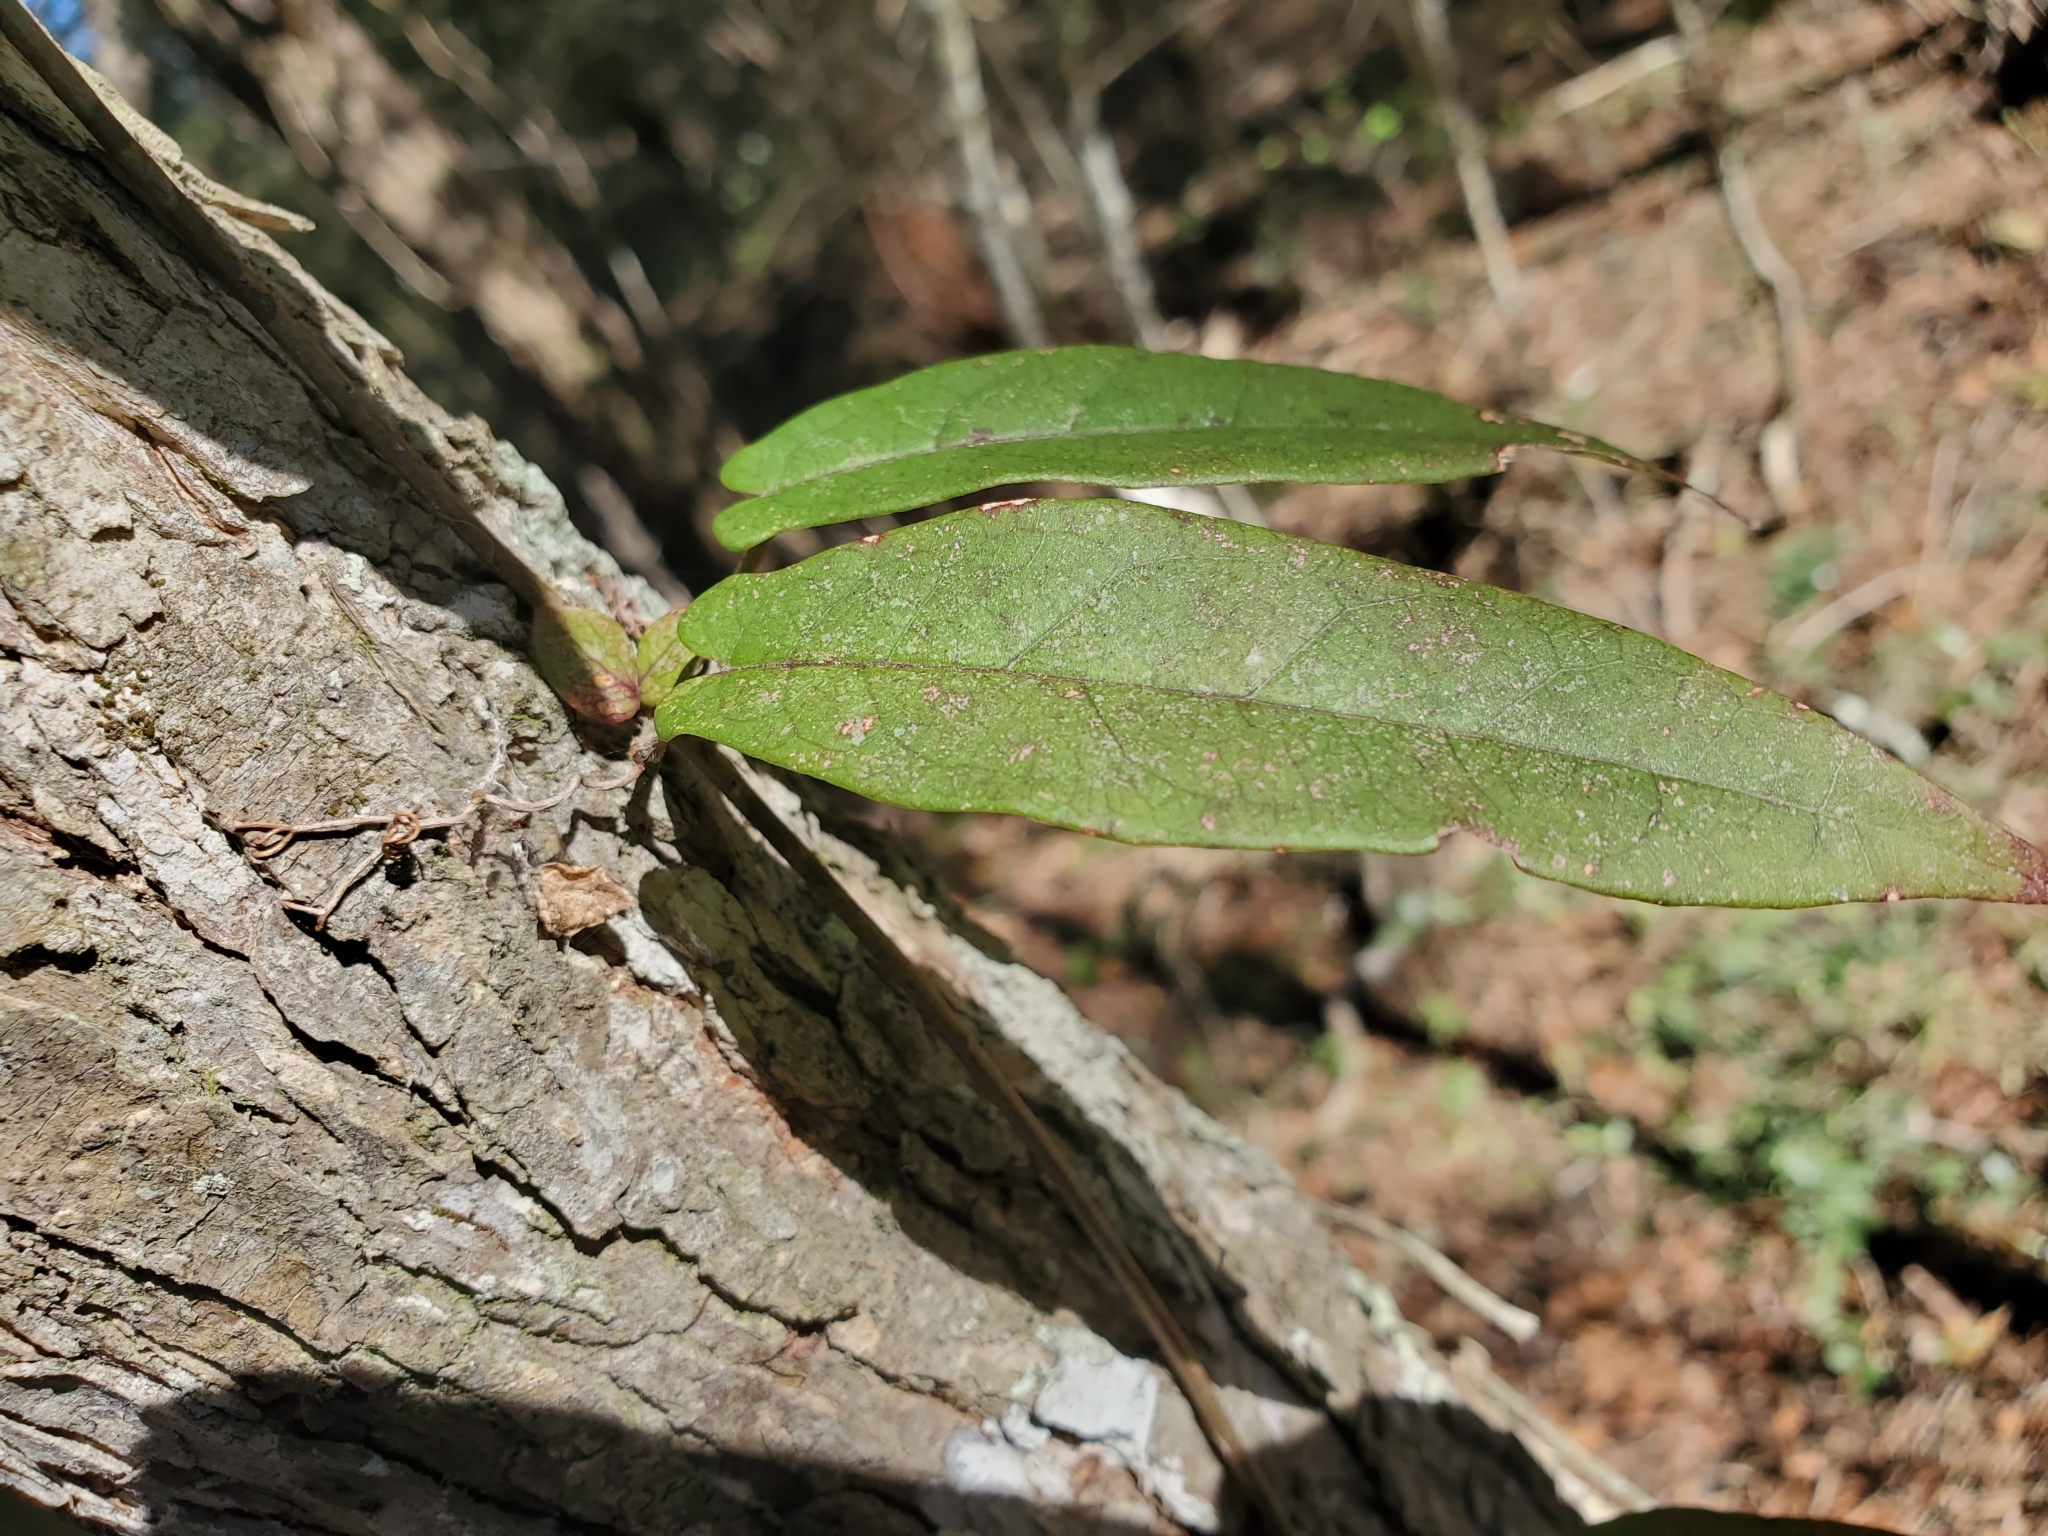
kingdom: Plantae
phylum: Tracheophyta
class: Magnoliopsida
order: Lamiales
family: Bignoniaceae
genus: Bignonia
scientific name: Bignonia capreolata
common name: Crossvine
